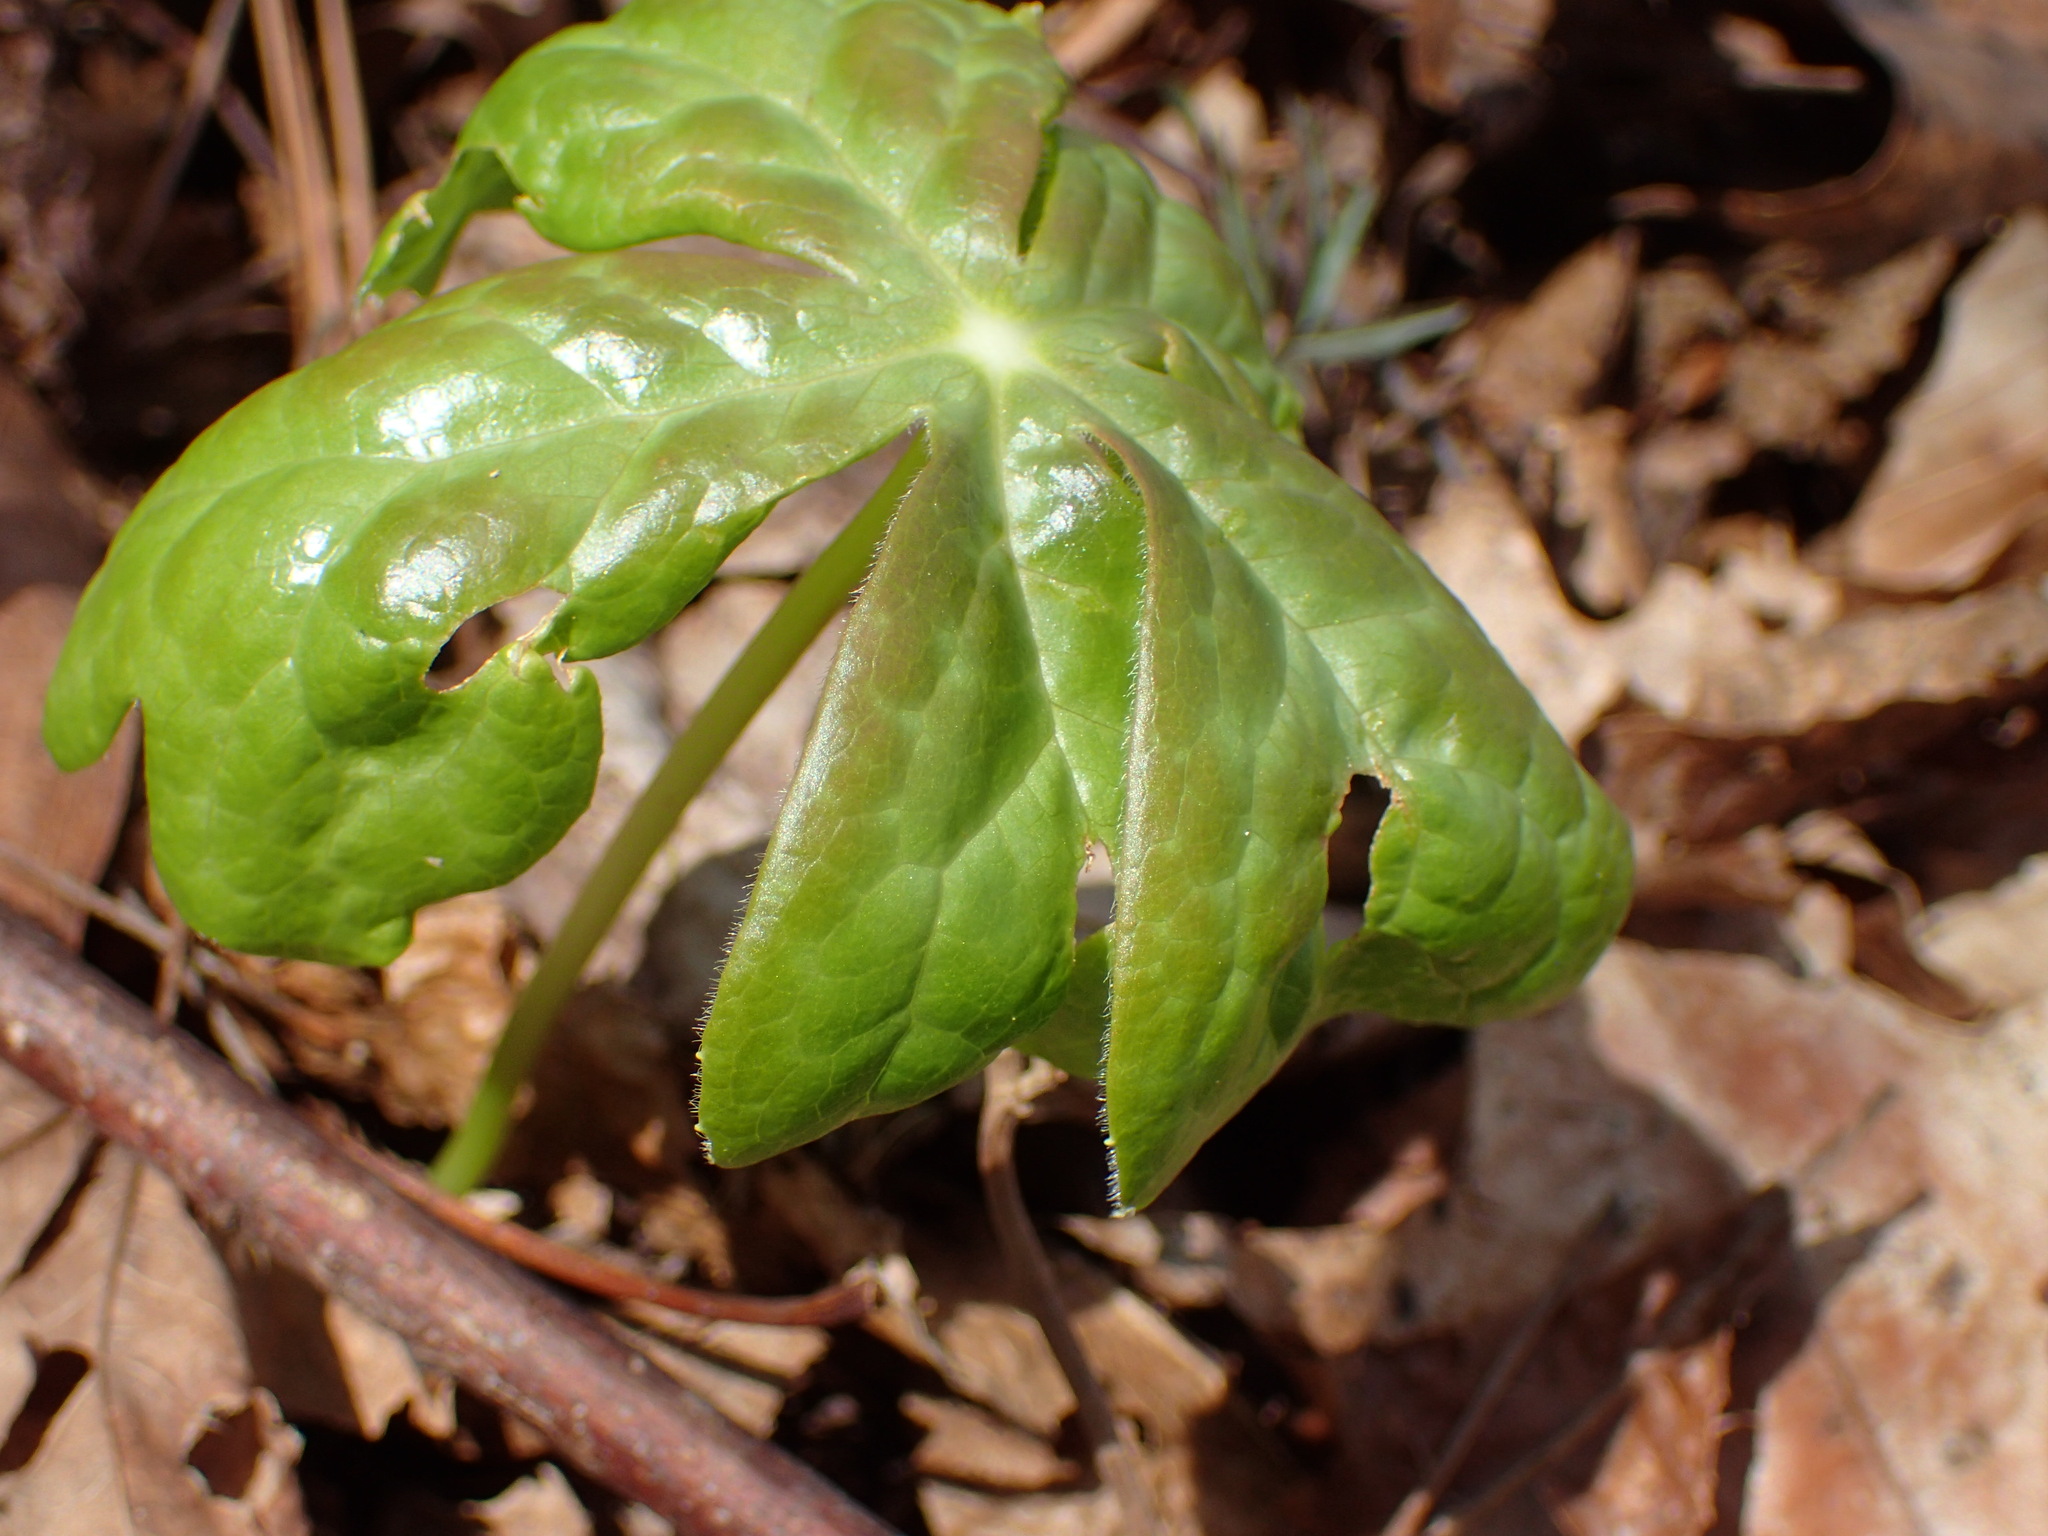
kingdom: Plantae
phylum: Tracheophyta
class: Magnoliopsida
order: Ranunculales
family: Berberidaceae
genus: Podophyllum
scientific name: Podophyllum peltatum
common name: Wild mandrake
